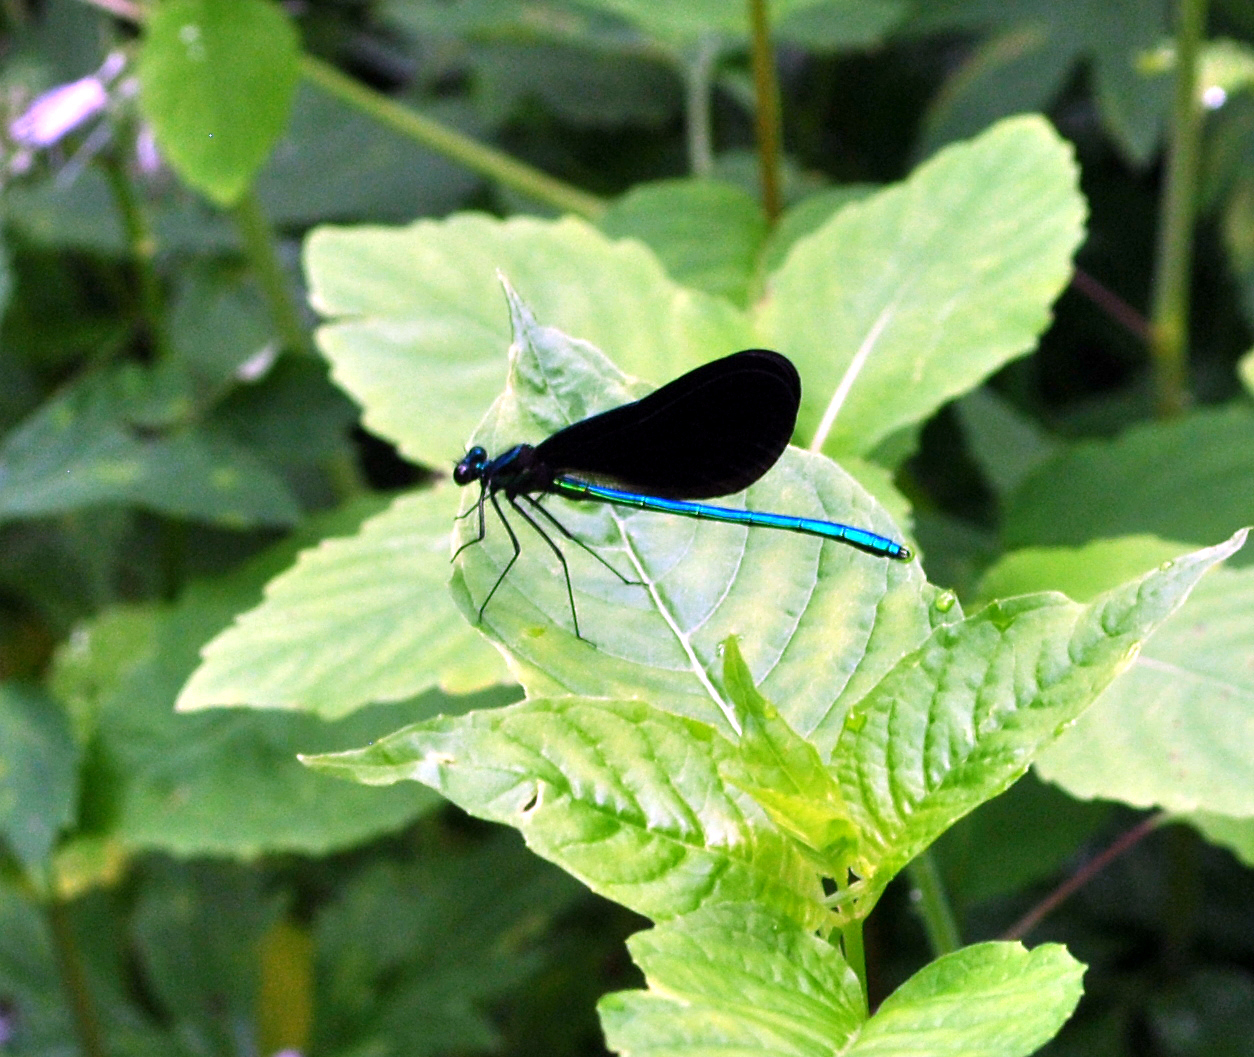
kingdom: Animalia
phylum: Arthropoda
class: Insecta
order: Odonata
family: Calopterygidae
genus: Calopteryx
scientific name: Calopteryx maculata
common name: Ebony jewelwing
